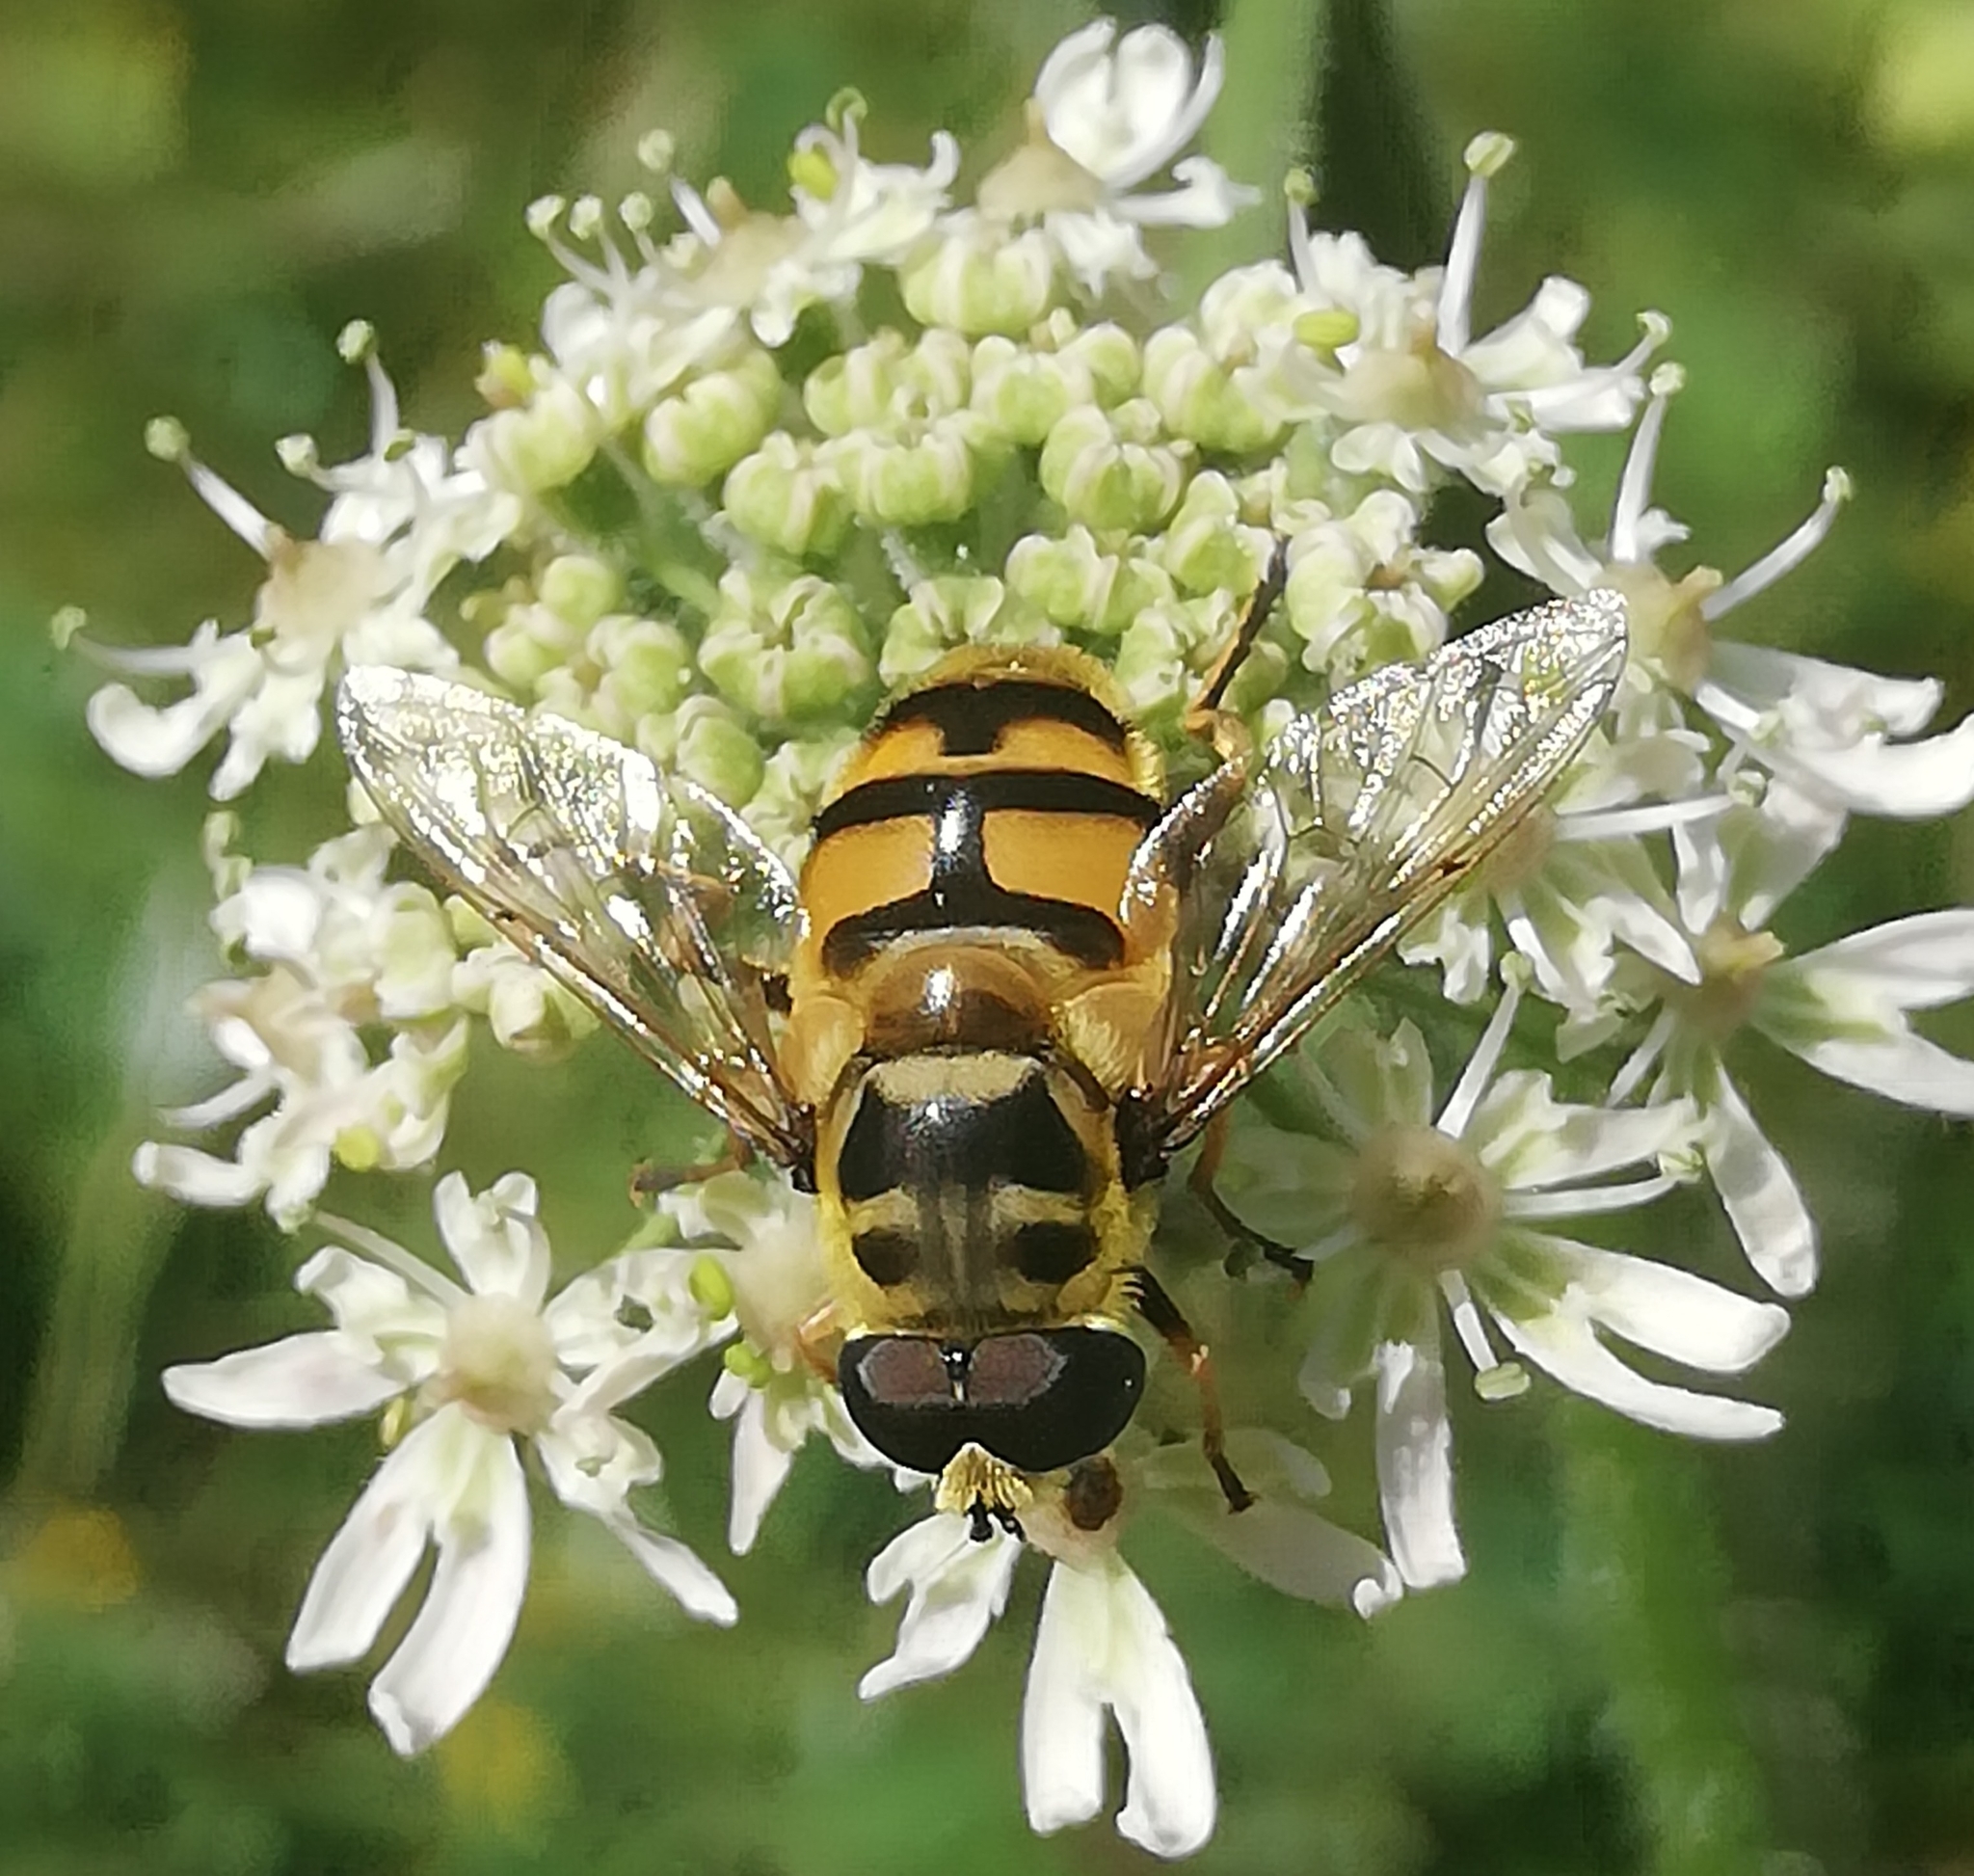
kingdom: Animalia
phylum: Arthropoda
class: Insecta
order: Diptera
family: Syrphidae
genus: Myathropa
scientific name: Myathropa florea
